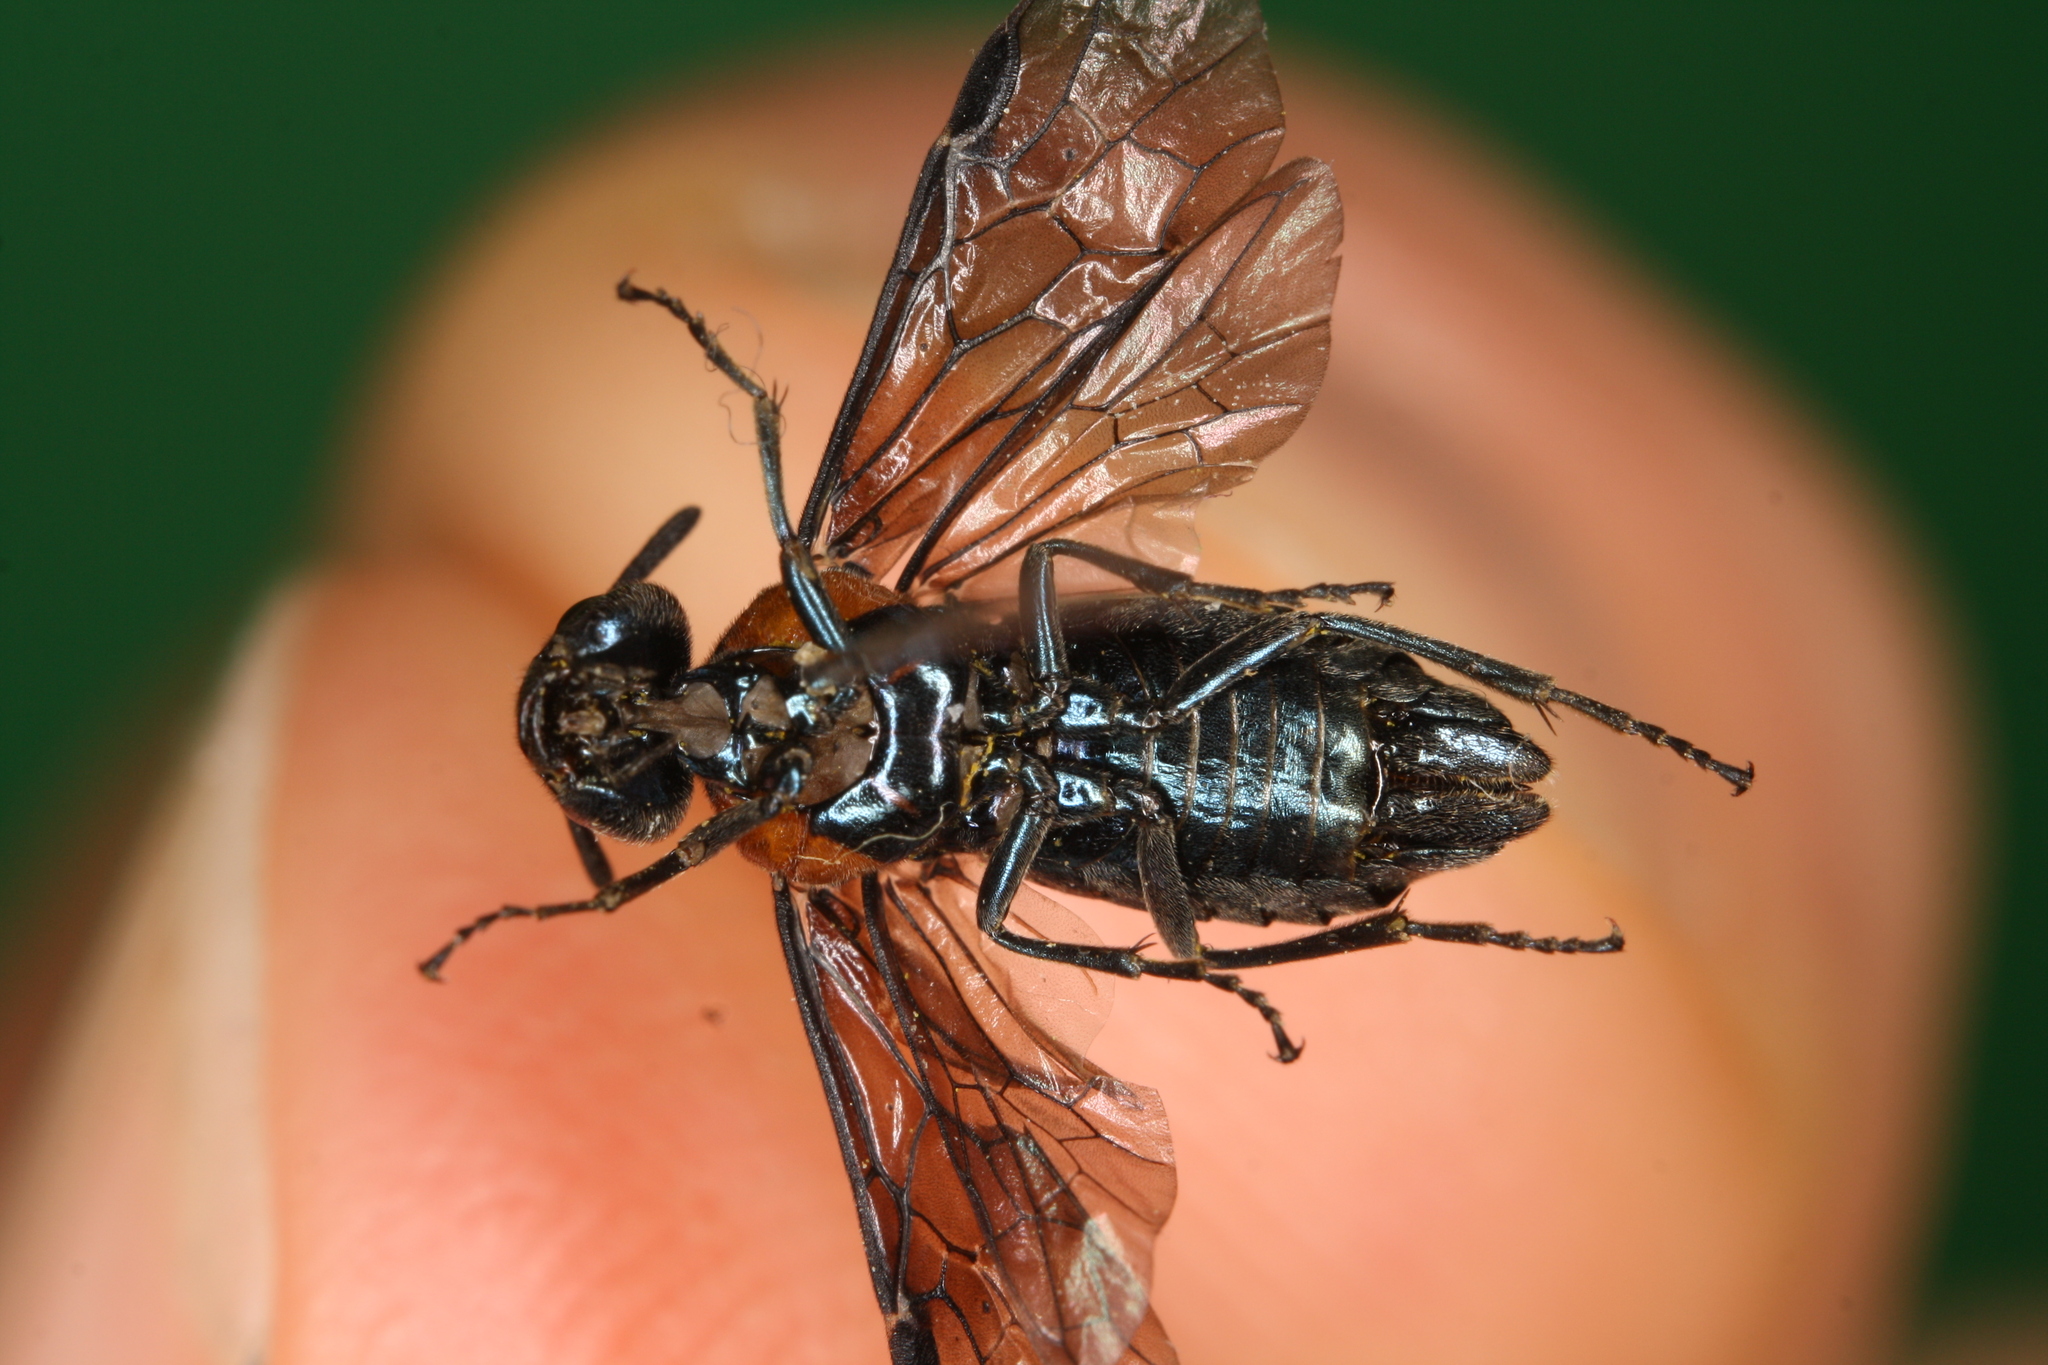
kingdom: Animalia
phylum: Arthropoda
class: Insecta
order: Hymenoptera
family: Argidae
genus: Arge
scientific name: Arge pleuritica
